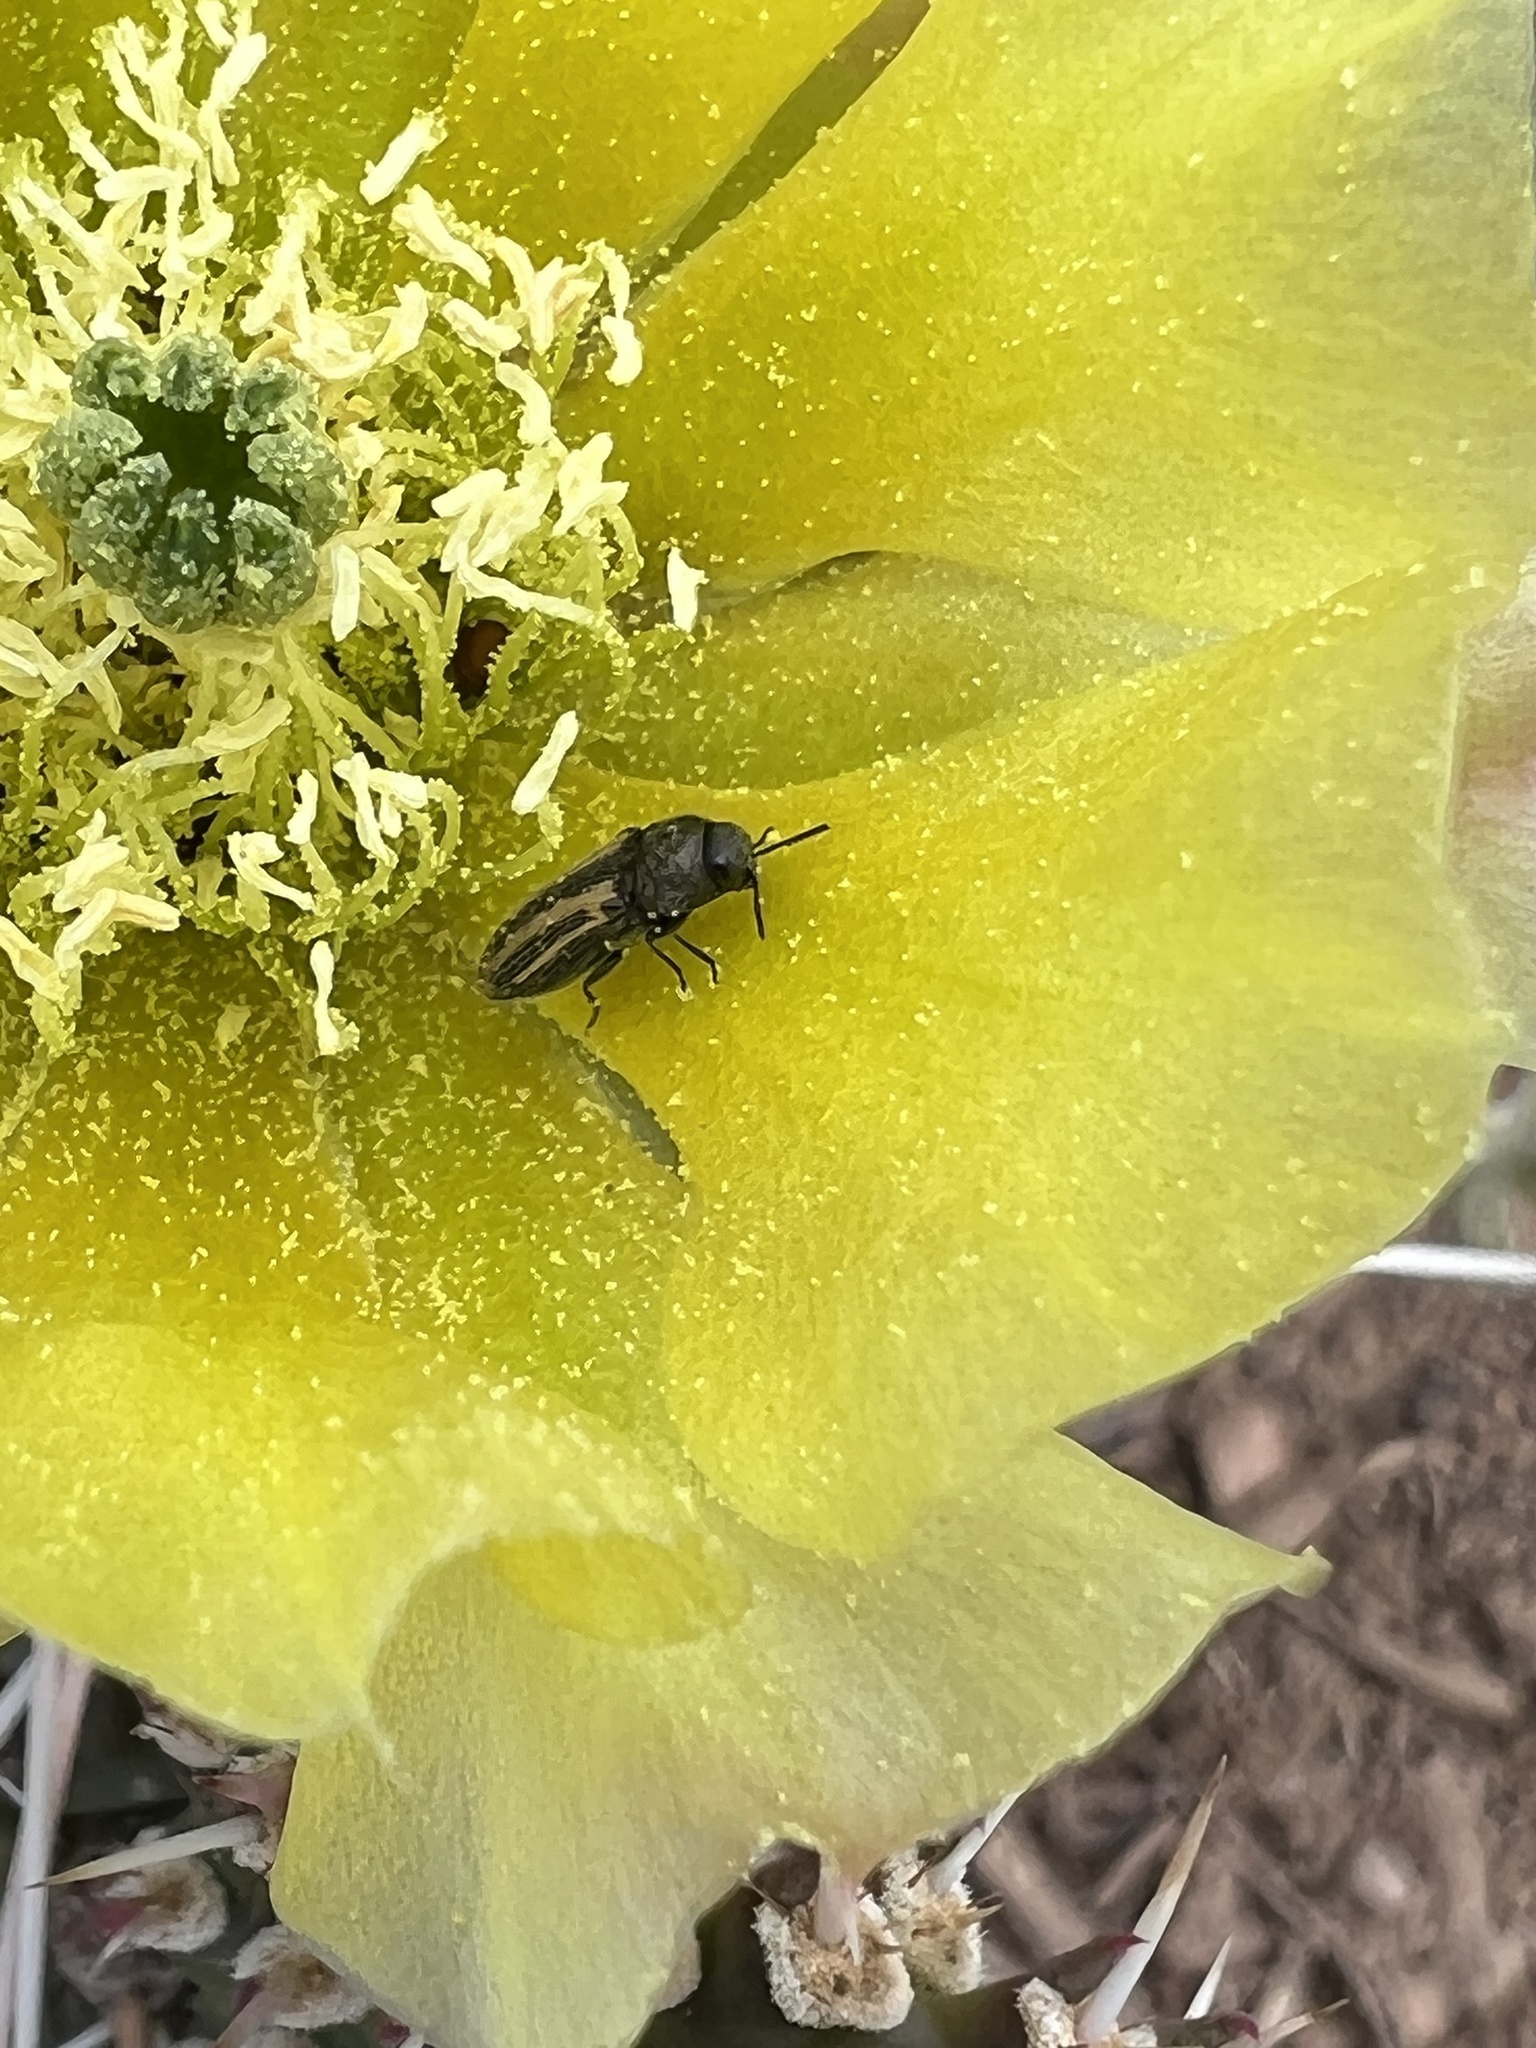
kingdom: Animalia
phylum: Arthropoda
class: Insecta
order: Coleoptera
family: Buprestidae
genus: Acmaeodera
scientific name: Acmaeodera quadrivittatoides
